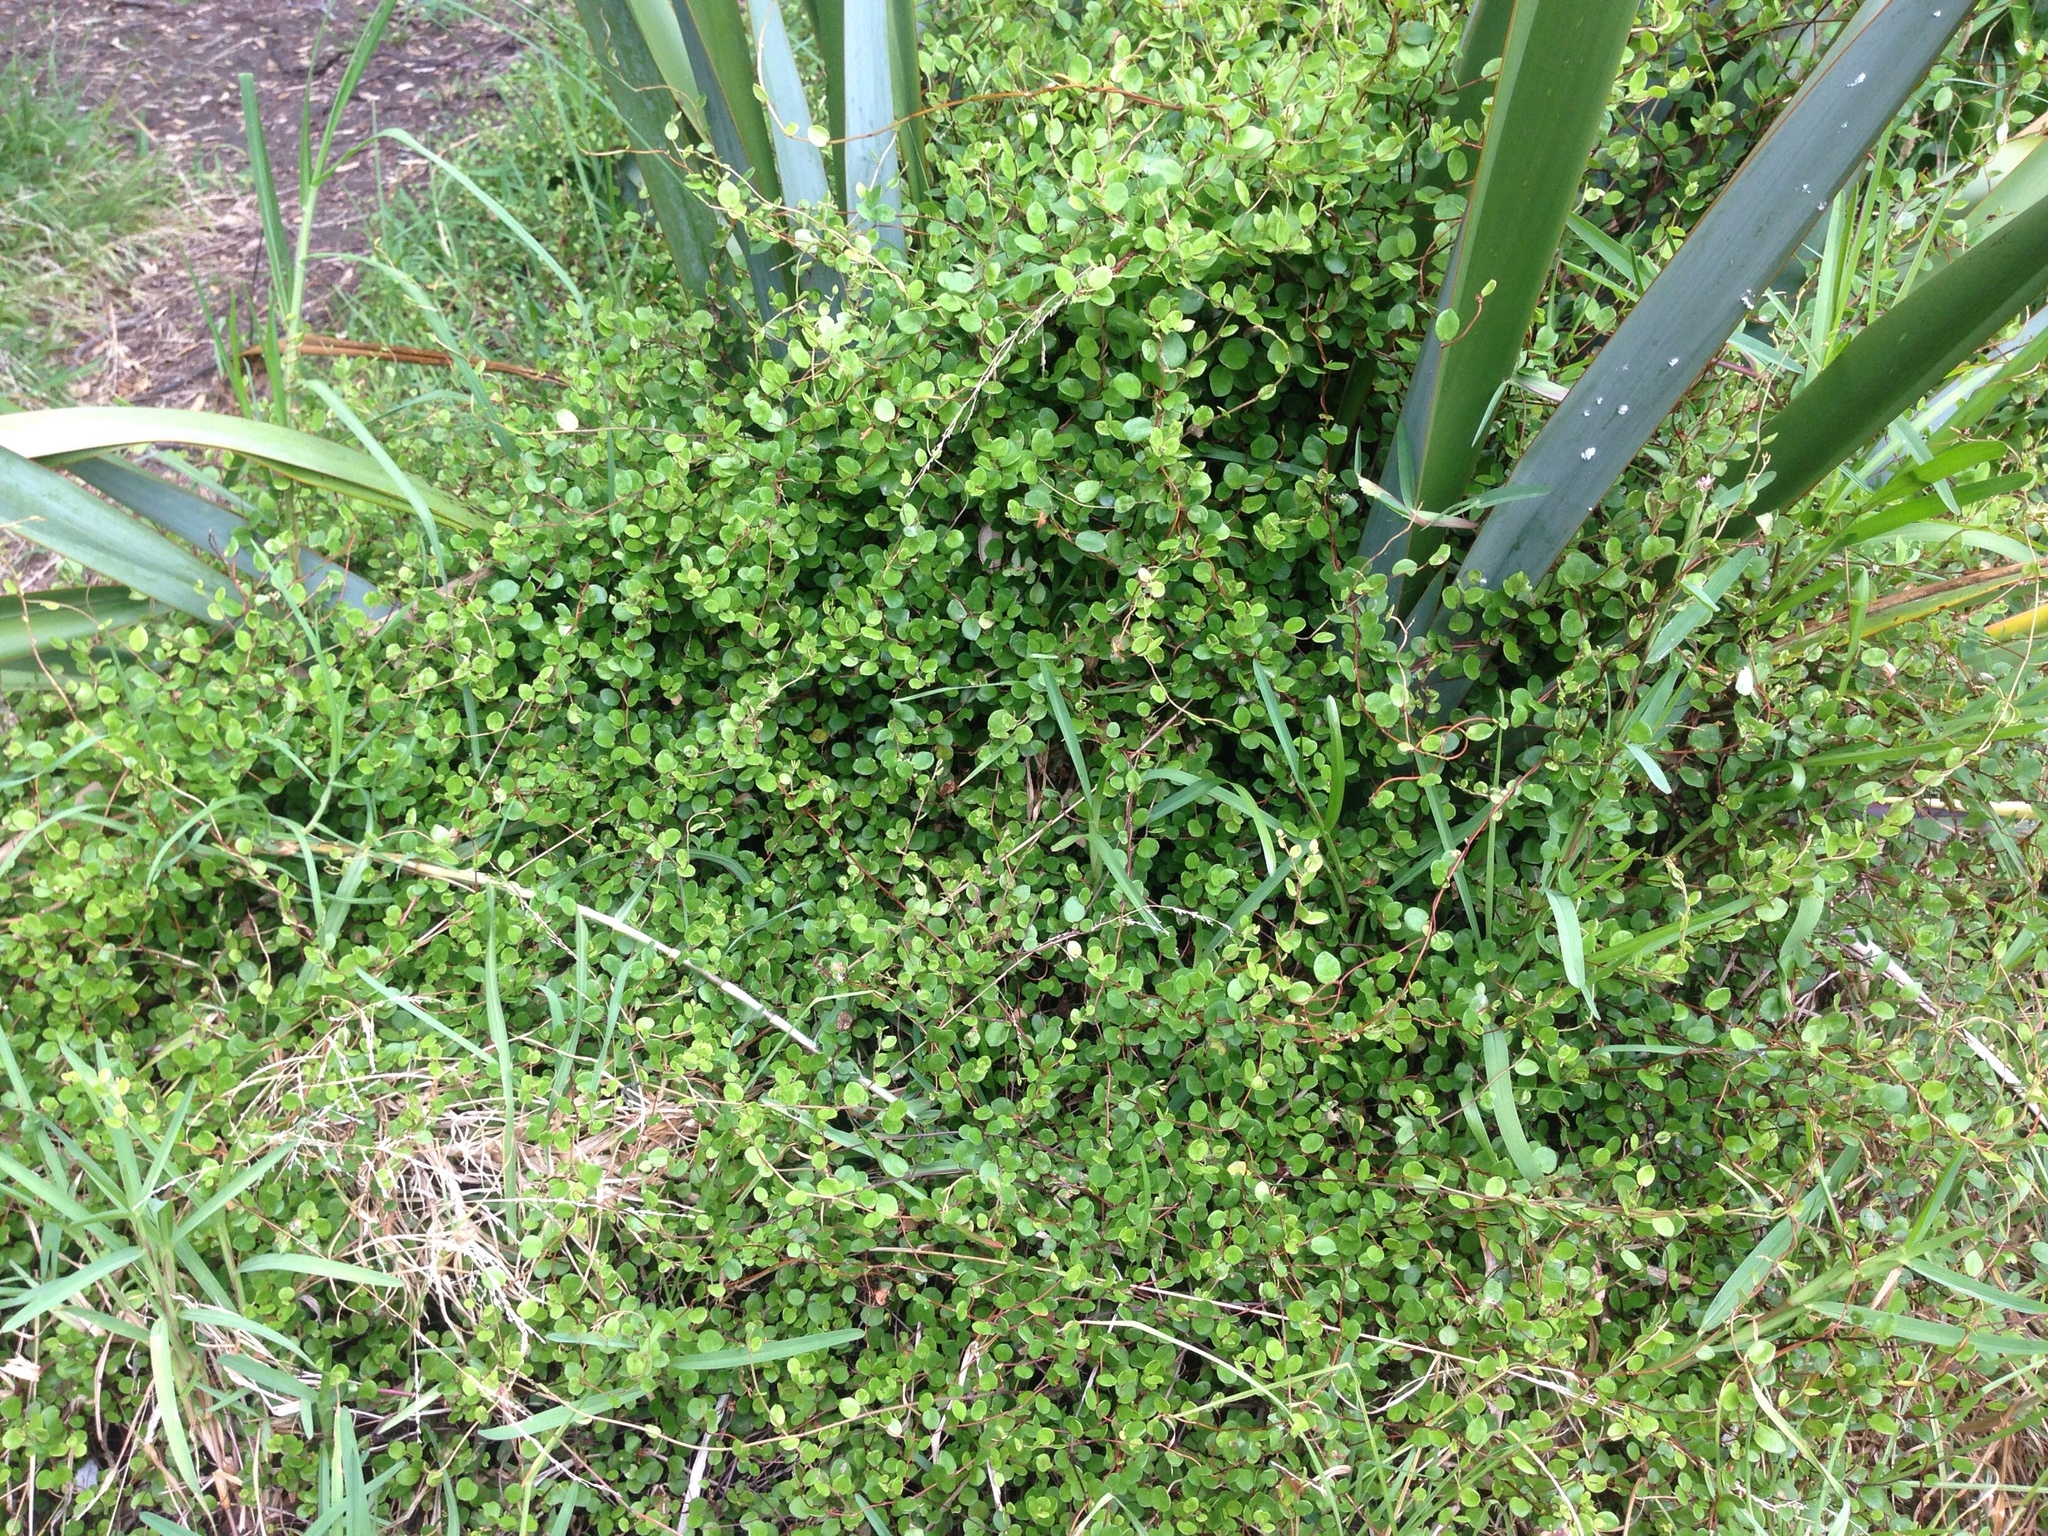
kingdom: Plantae
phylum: Tracheophyta
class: Magnoliopsida
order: Caryophyllales
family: Polygonaceae
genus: Muehlenbeckia
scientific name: Muehlenbeckia complexa
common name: Wireplant
